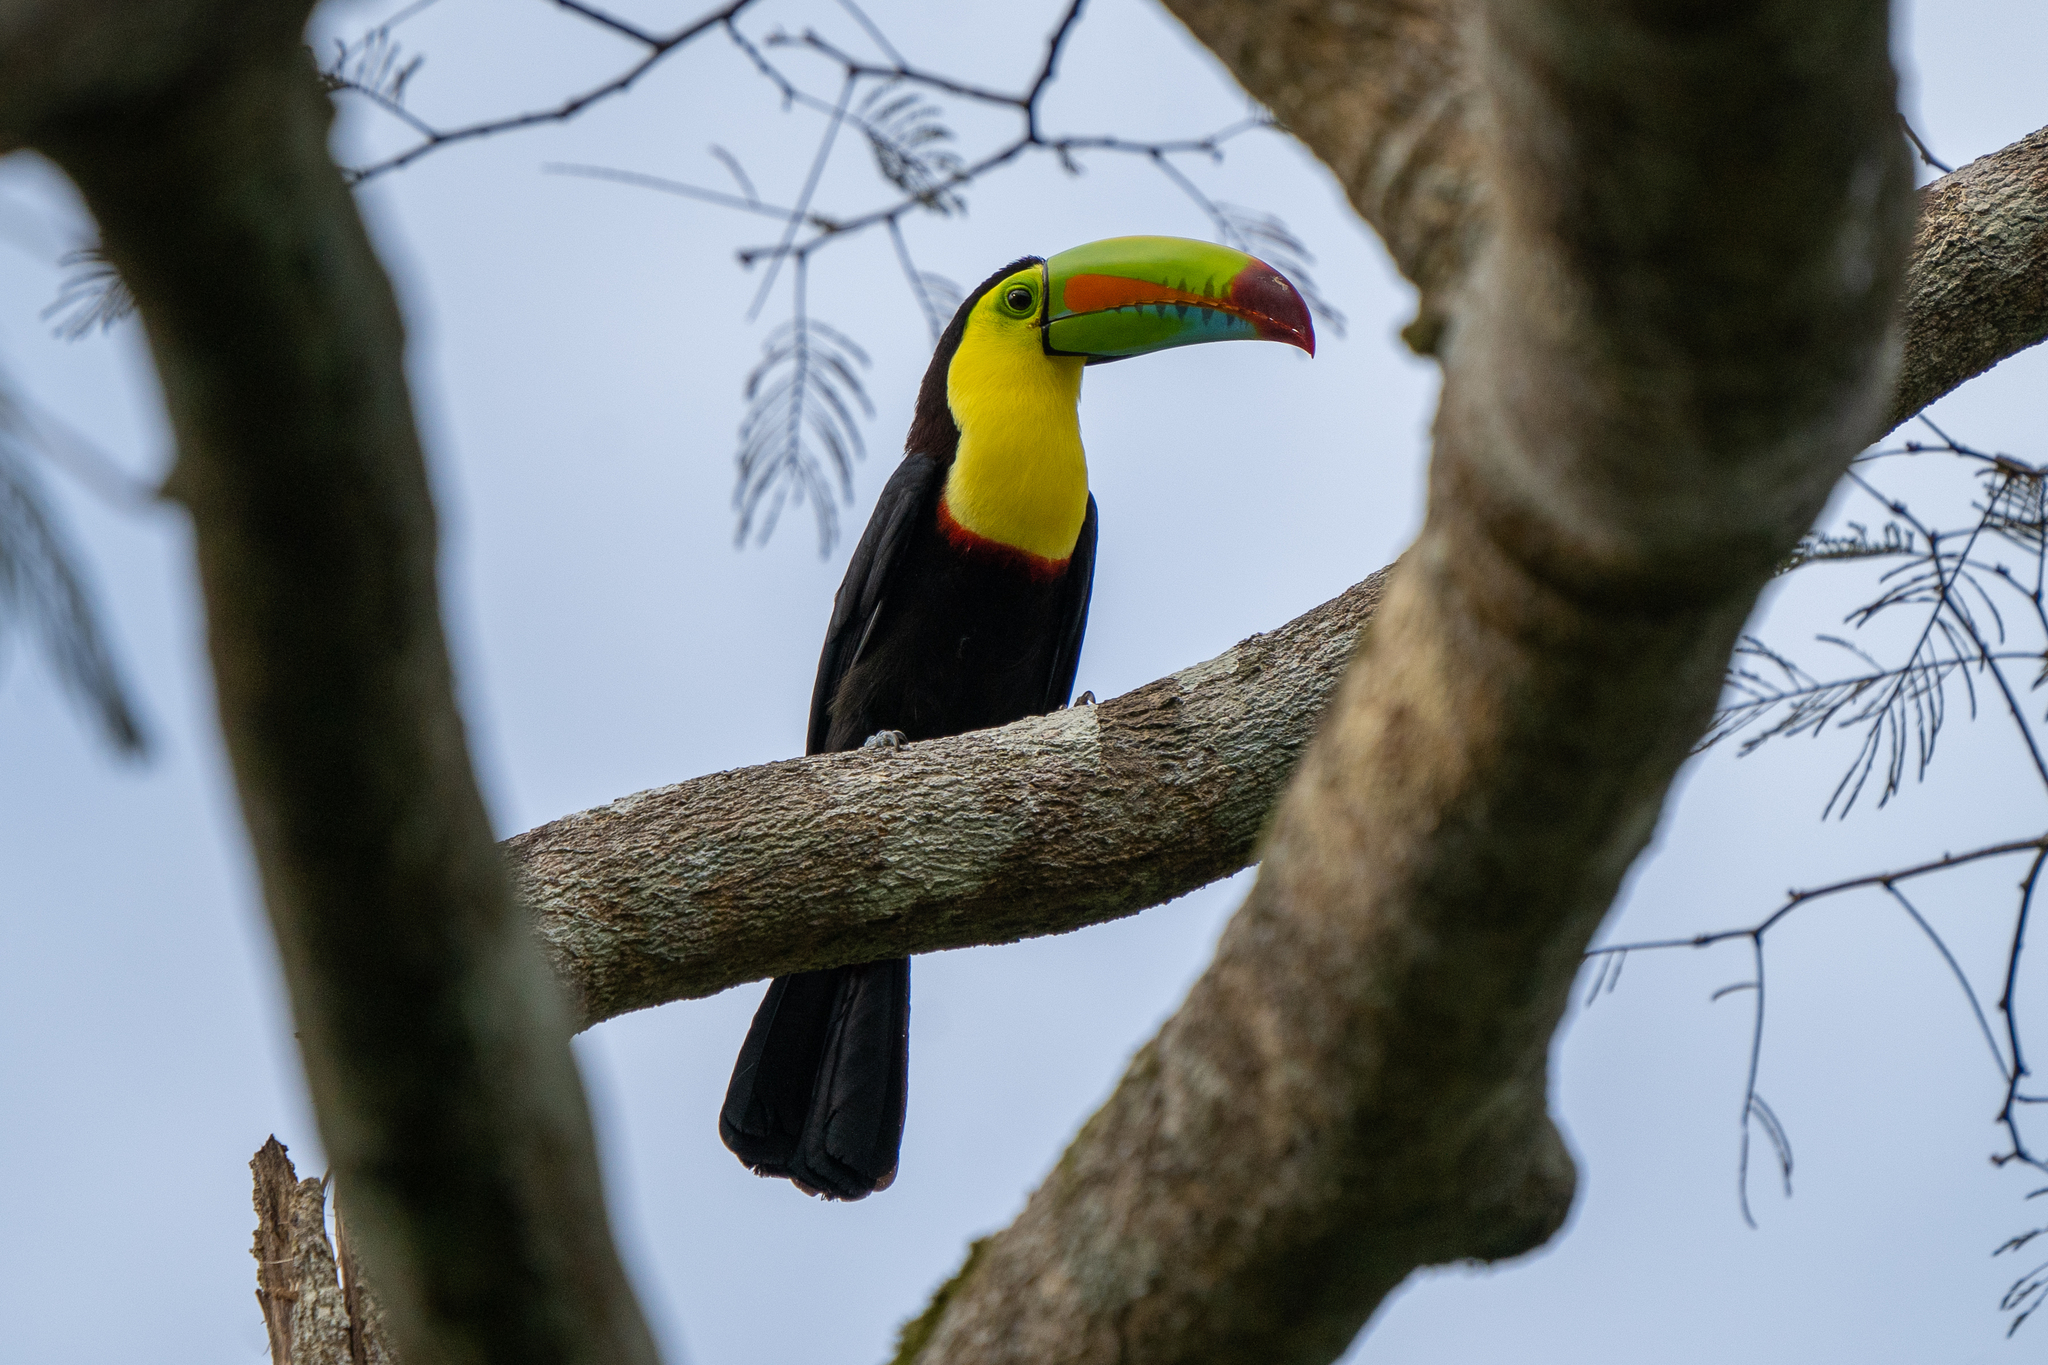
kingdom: Animalia
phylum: Chordata
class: Aves
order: Piciformes
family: Ramphastidae
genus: Ramphastos
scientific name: Ramphastos sulfuratus
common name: Keel-billed toucan
